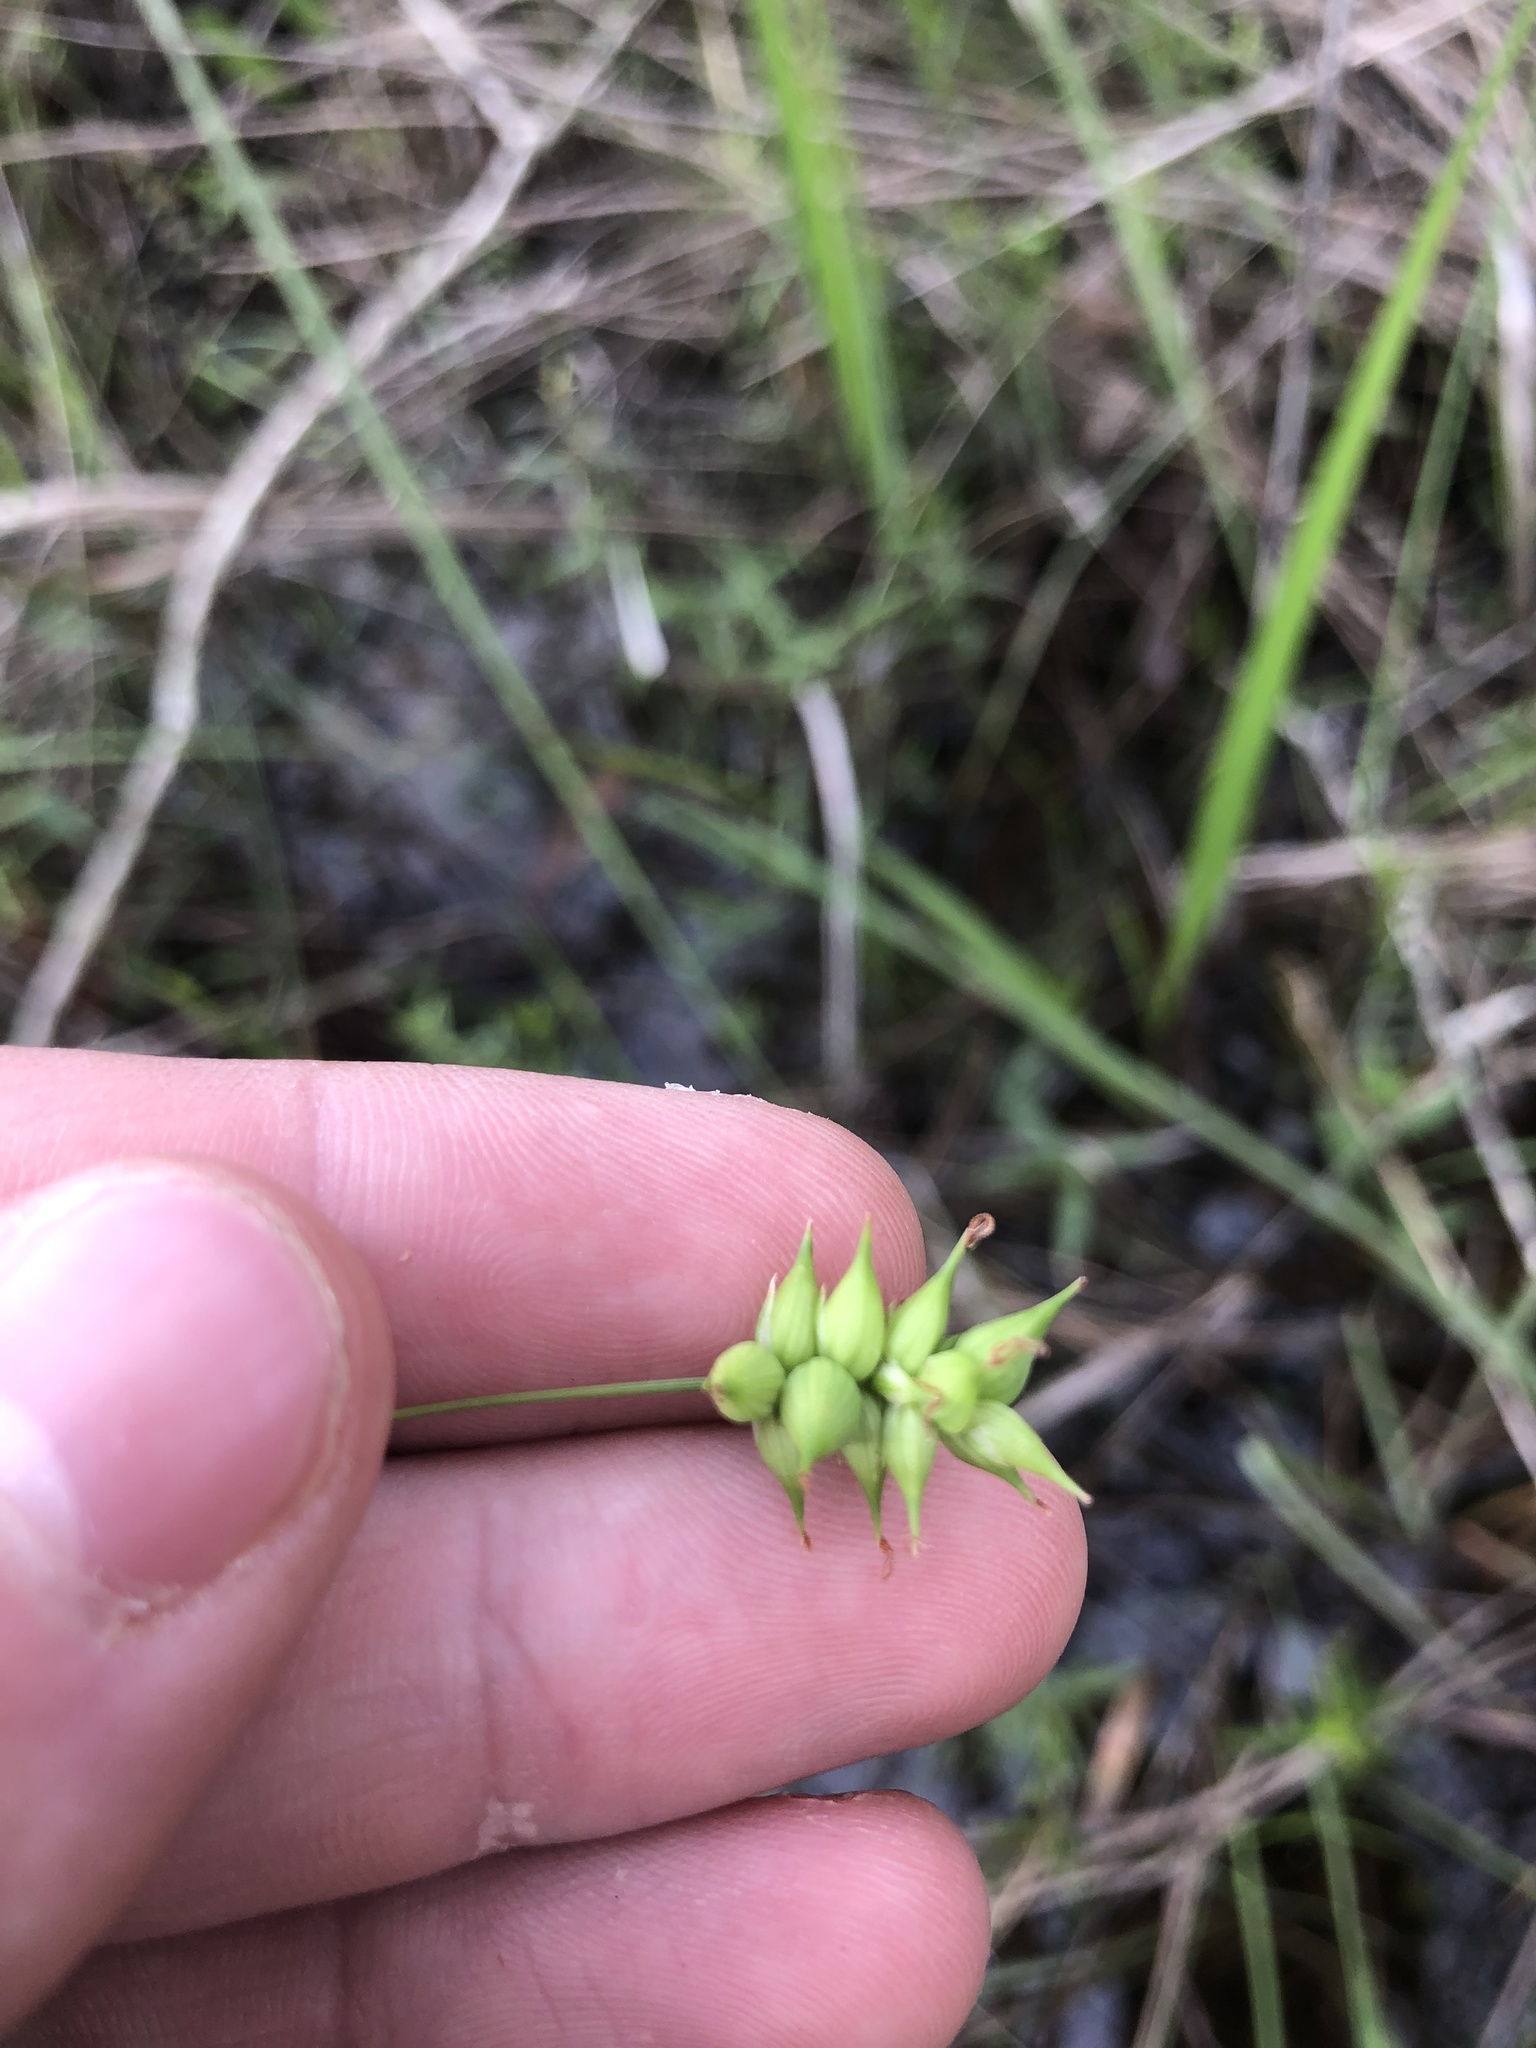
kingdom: Plantae
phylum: Tracheophyta
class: Liliopsida
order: Poales
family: Cyperaceae
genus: Carex
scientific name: Carex turgescens
